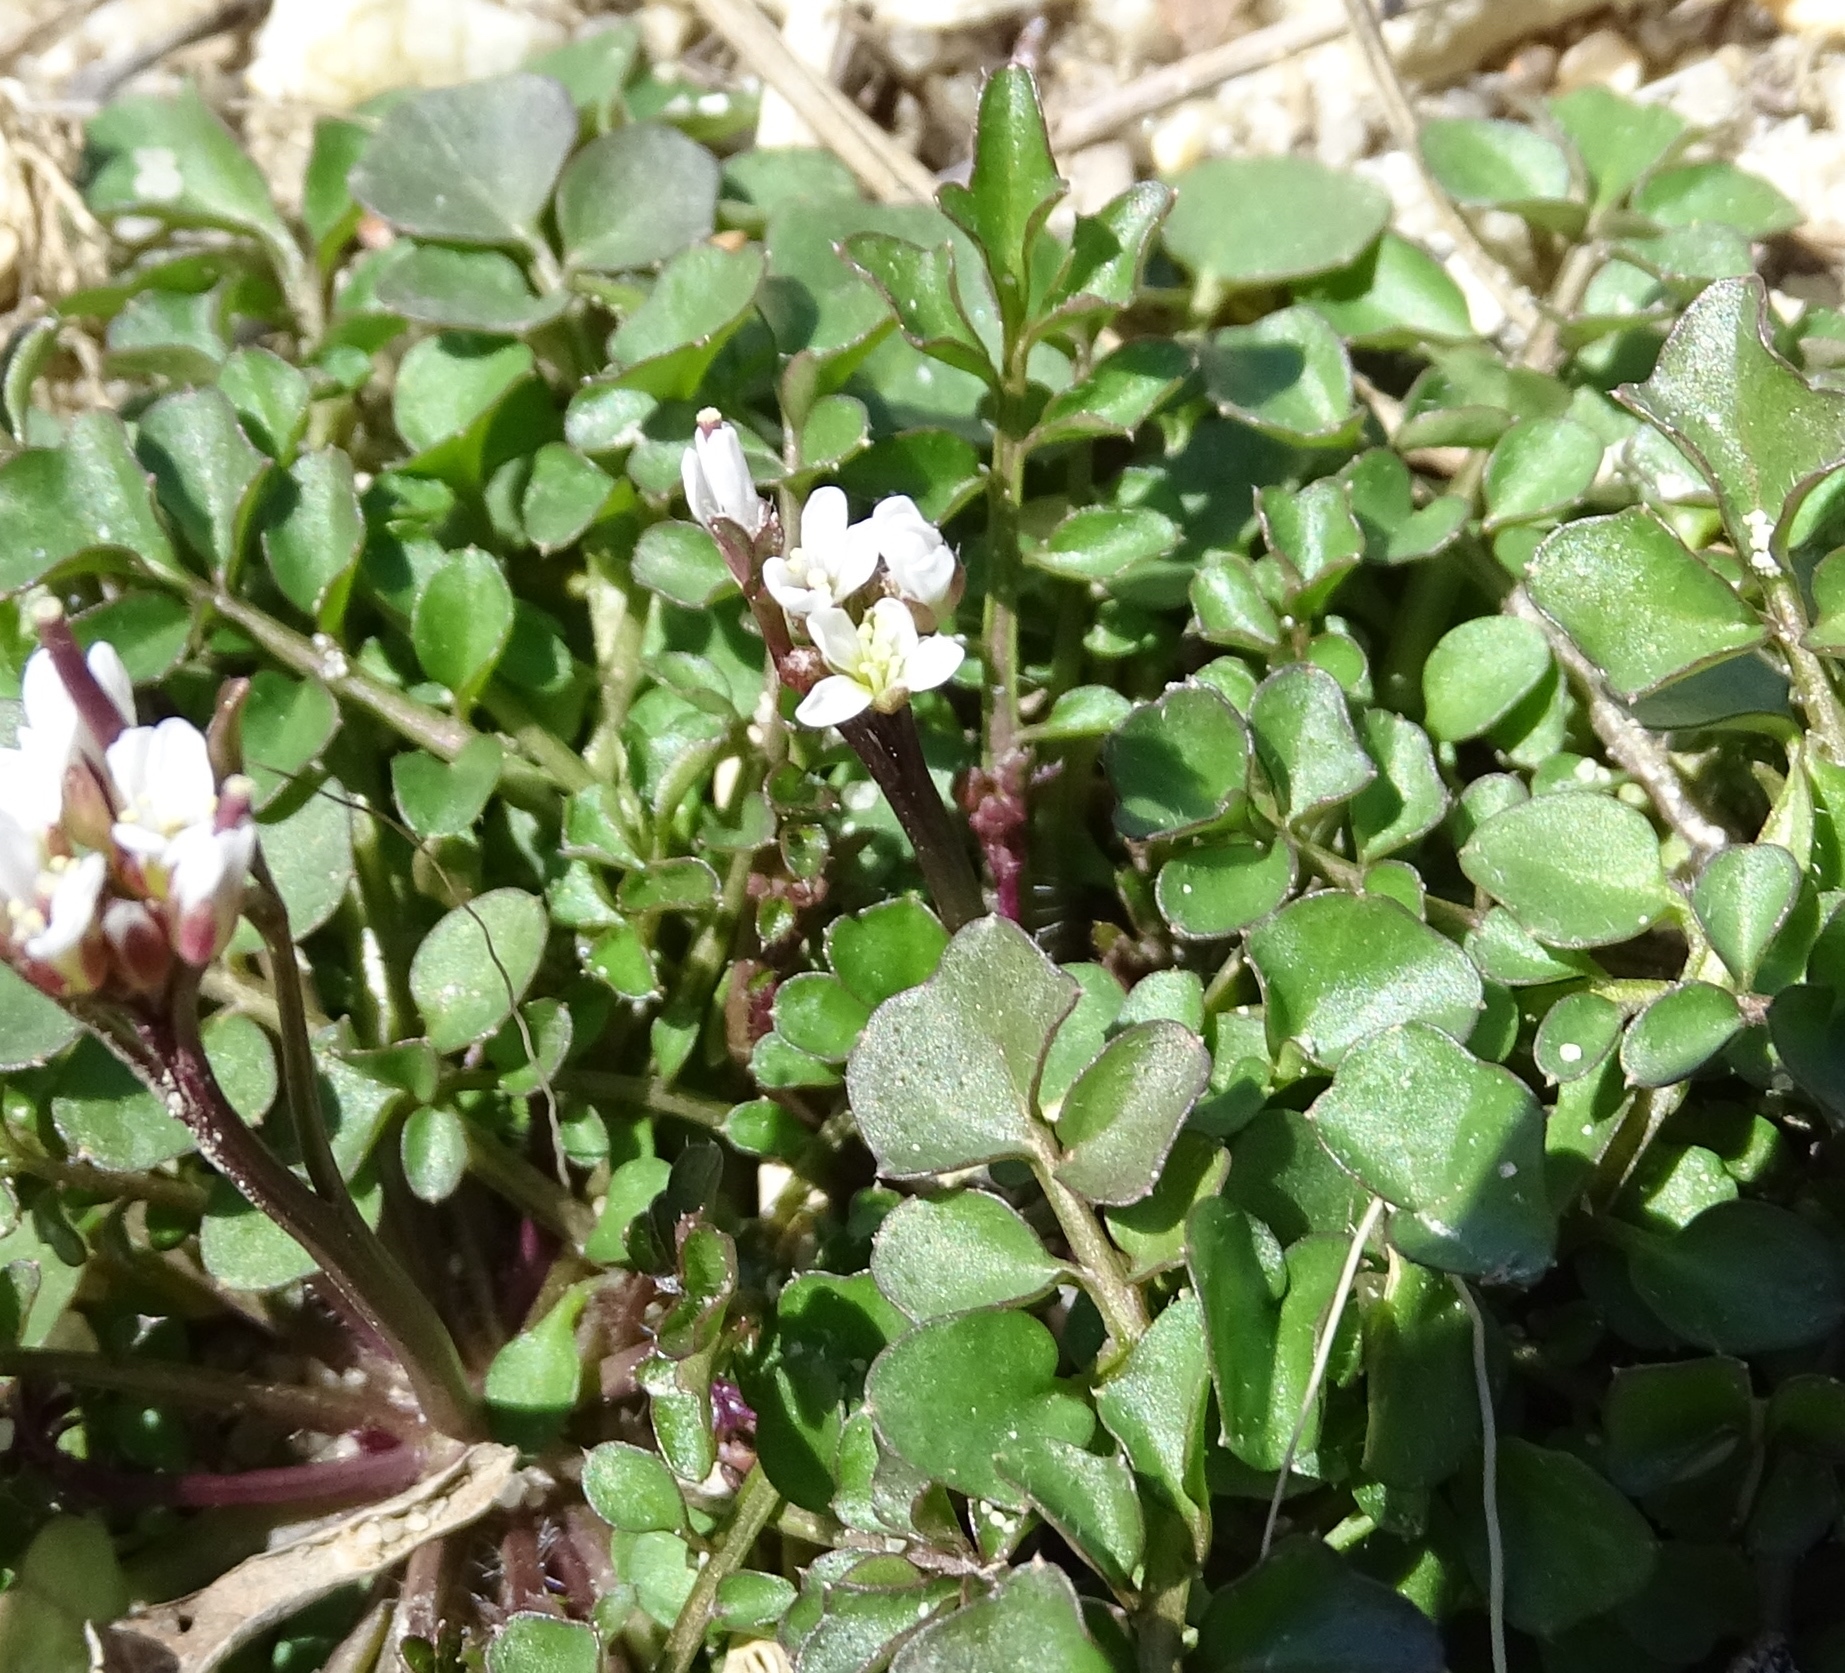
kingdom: Plantae
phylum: Tracheophyta
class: Magnoliopsida
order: Brassicales
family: Brassicaceae
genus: Cardamine
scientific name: Cardamine hirsuta
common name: Hairy bittercress
